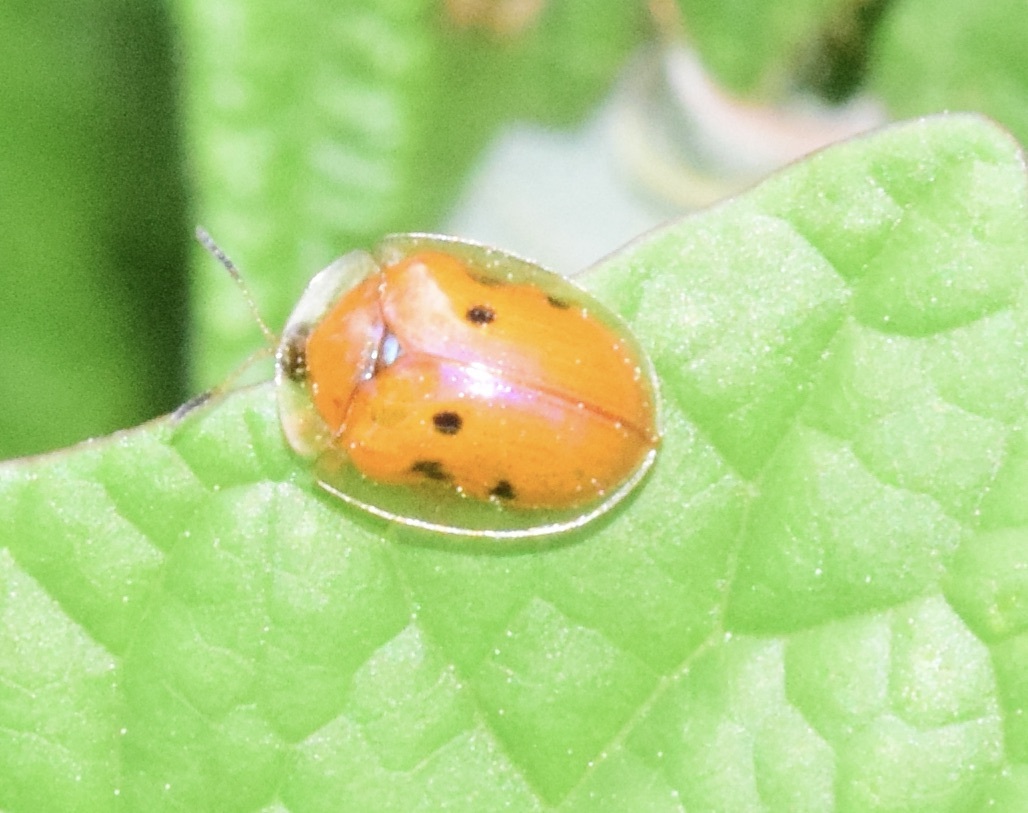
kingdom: Animalia
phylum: Arthropoda
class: Insecta
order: Coleoptera
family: Chrysomelidae
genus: Charidotella
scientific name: Charidotella sexpunctata
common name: Golden tortoise beetle
